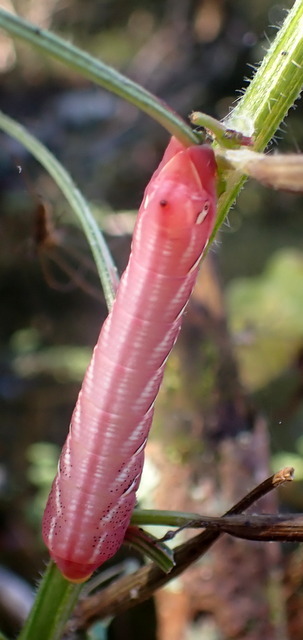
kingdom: Animalia
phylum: Arthropoda
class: Insecta
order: Lepidoptera
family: Sphingidae
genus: Eumorpha
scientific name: Eumorpha fasciatus
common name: Banded sphinx
